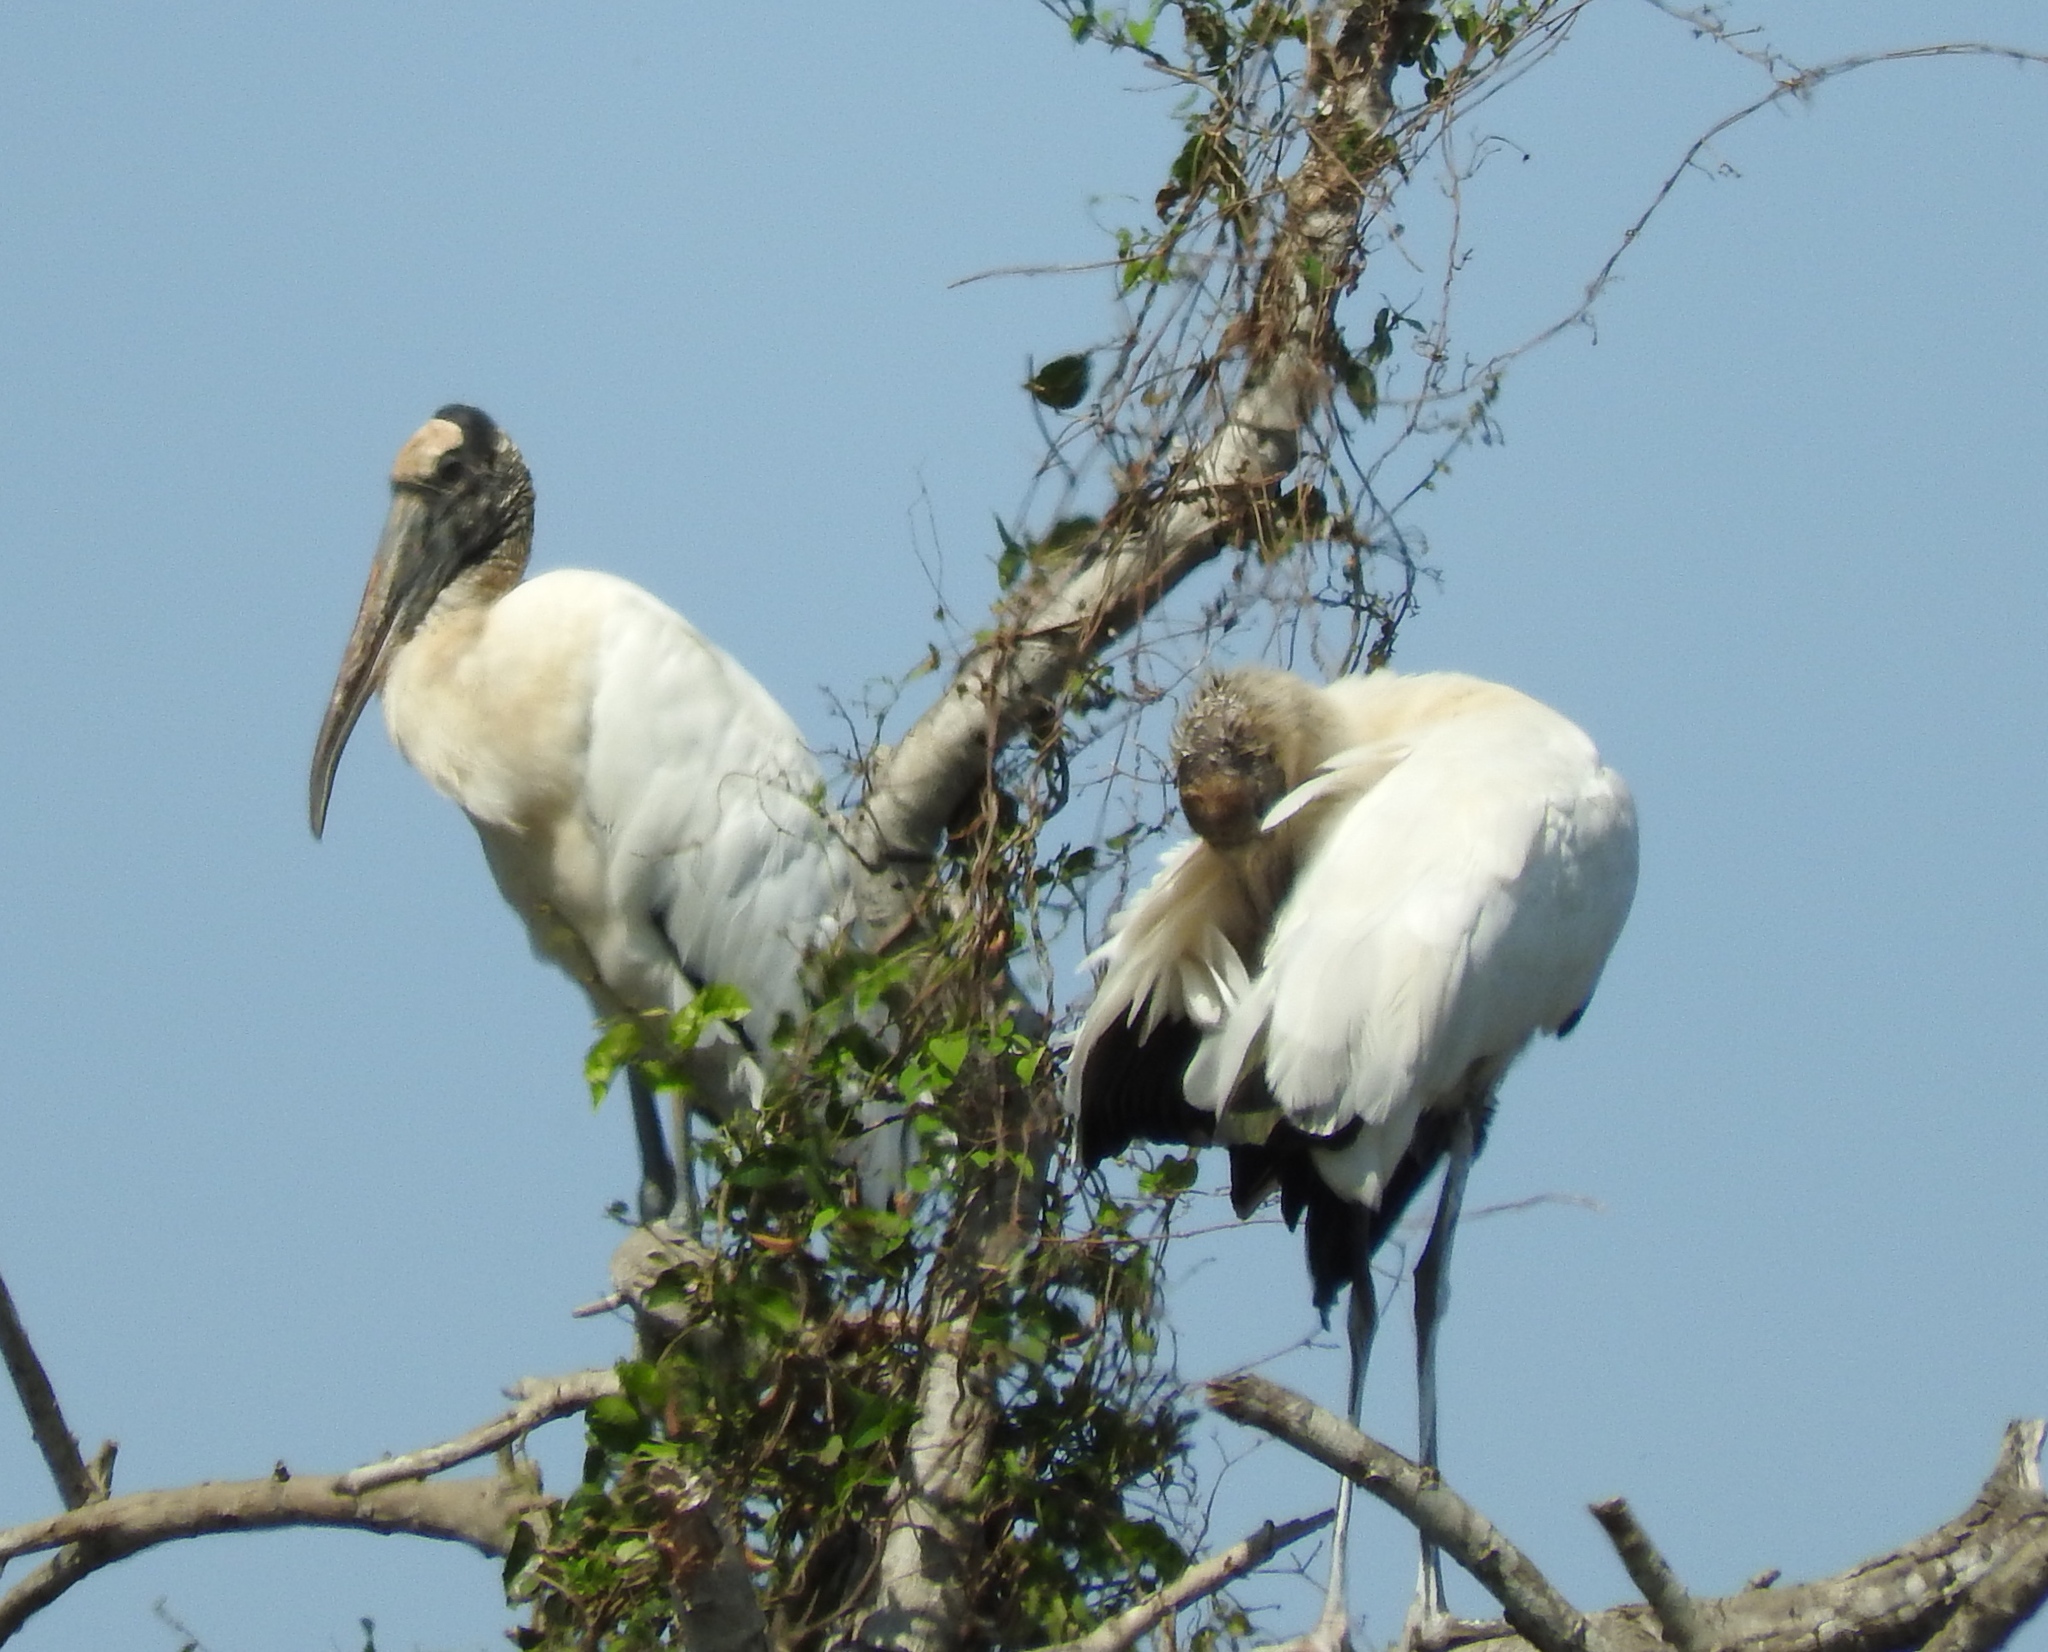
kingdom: Animalia
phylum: Chordata
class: Aves
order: Ciconiiformes
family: Ciconiidae
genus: Mycteria
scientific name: Mycteria americana
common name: Wood stork
